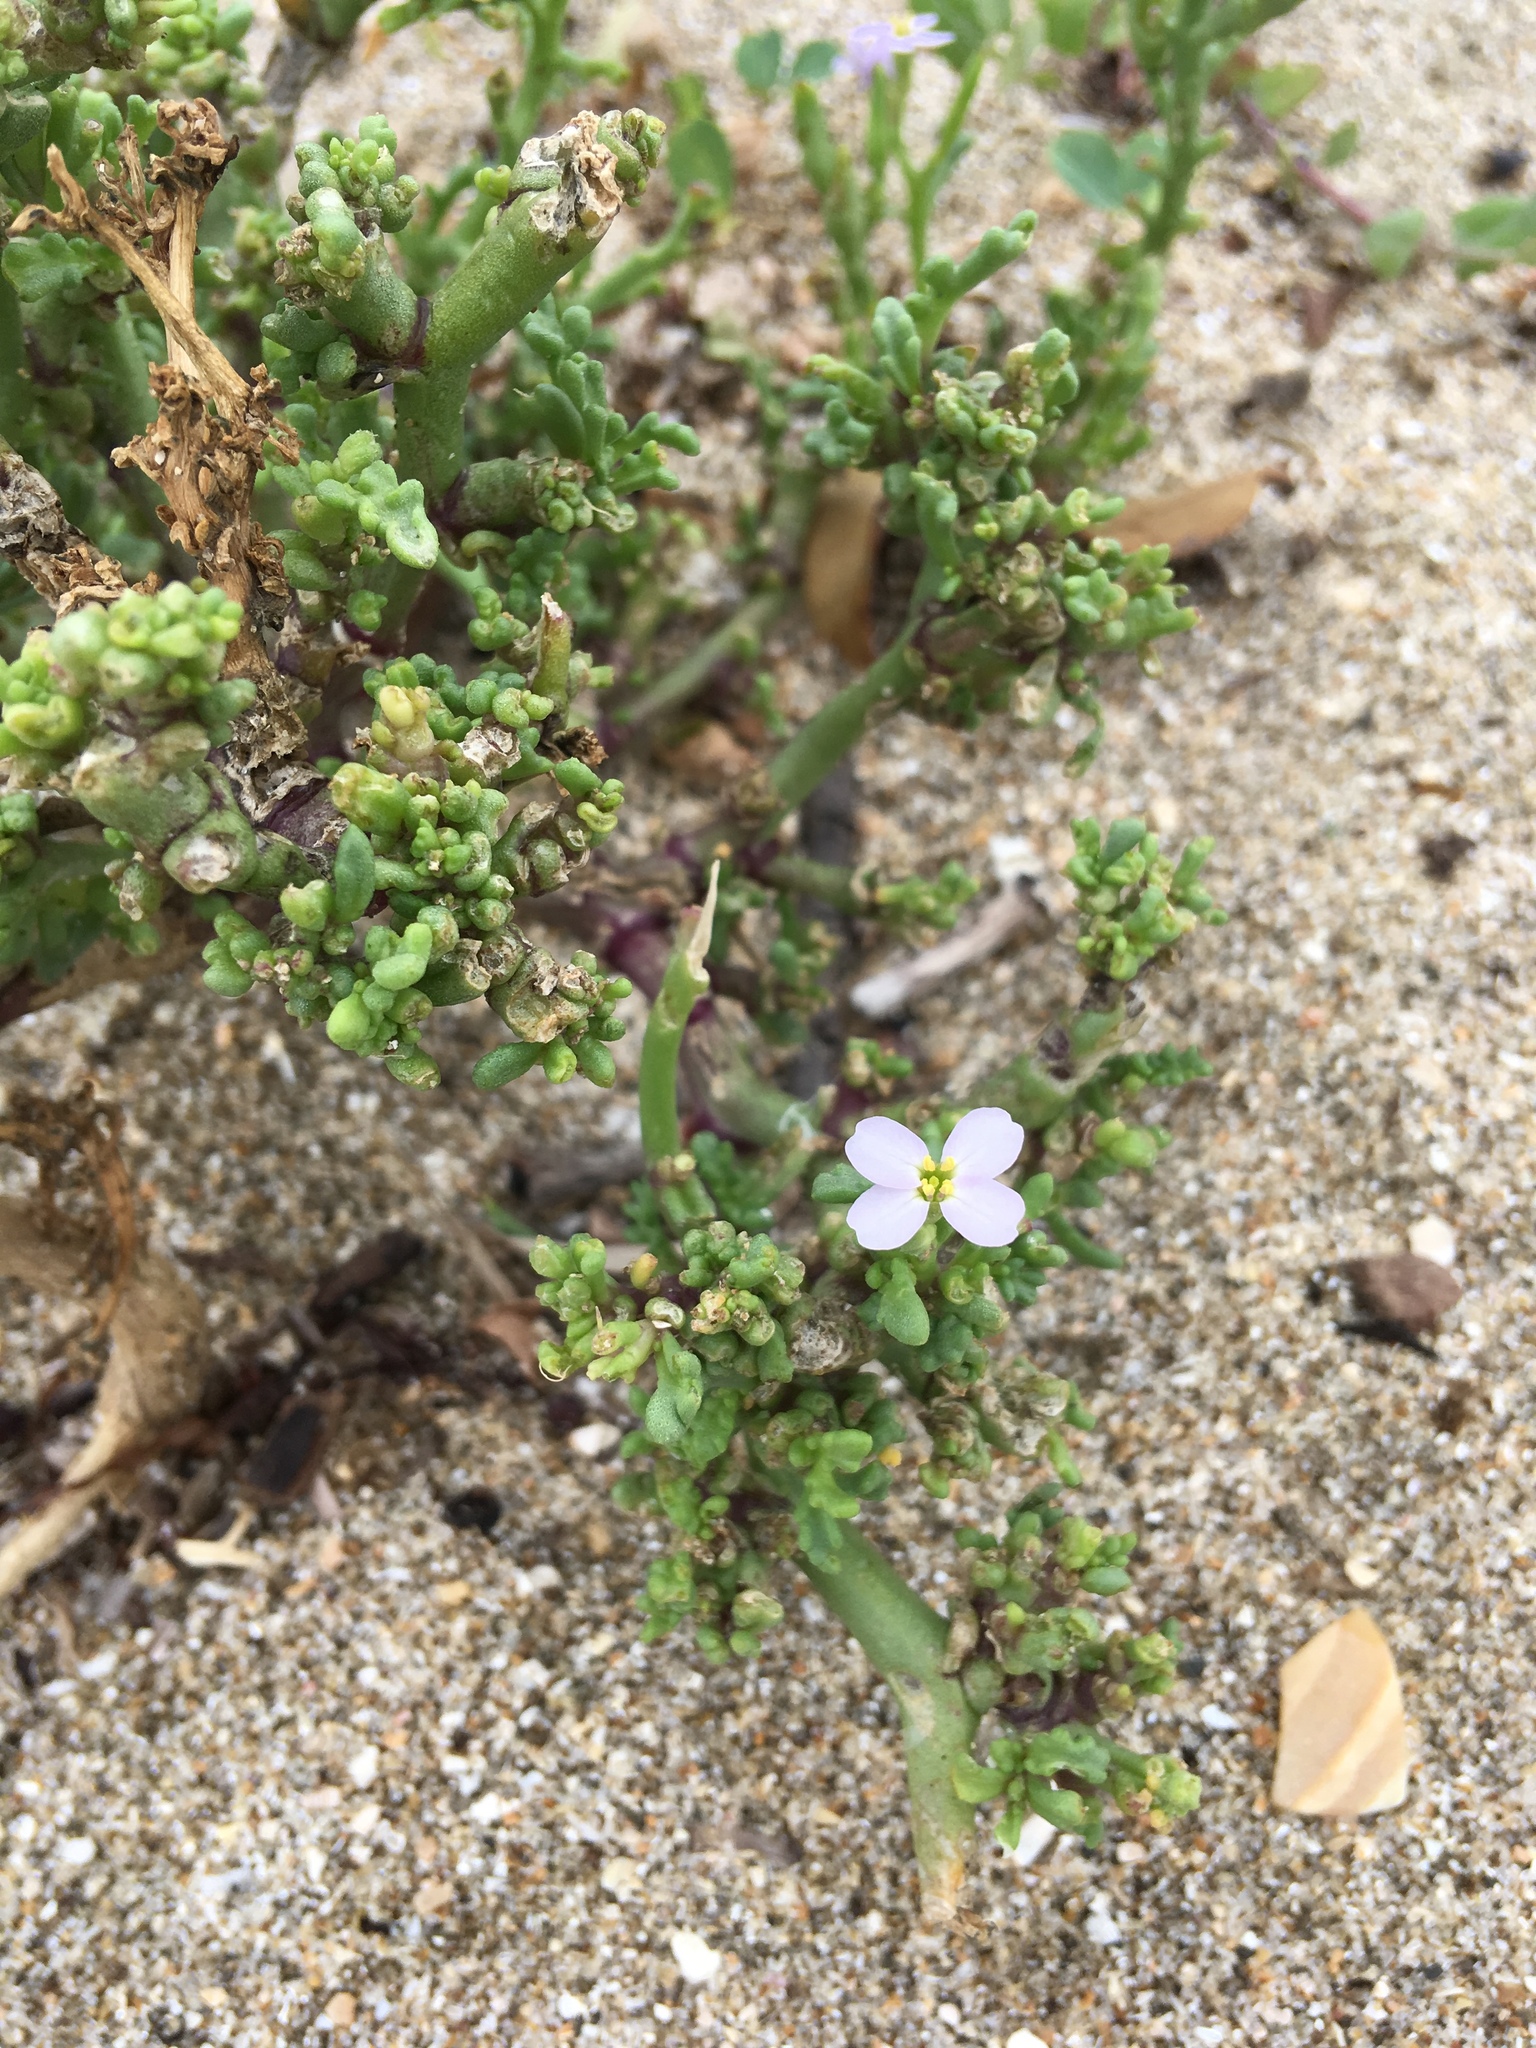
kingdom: Plantae
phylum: Tracheophyta
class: Magnoliopsida
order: Brassicales
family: Brassicaceae
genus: Cakile
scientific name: Cakile
